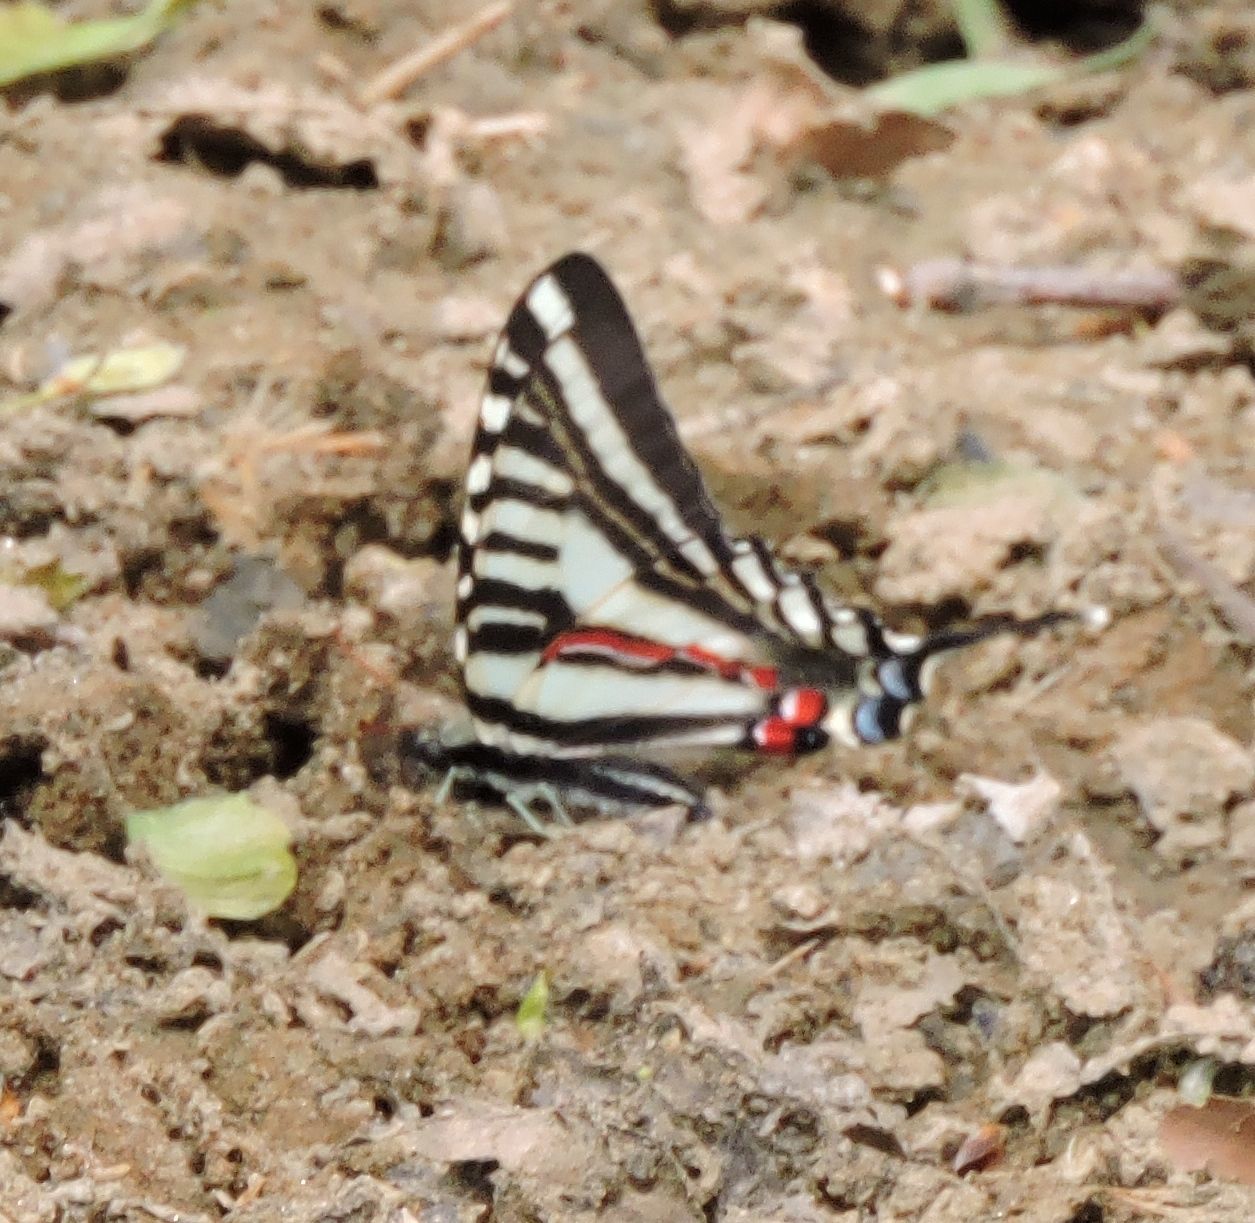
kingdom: Animalia
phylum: Arthropoda
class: Insecta
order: Lepidoptera
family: Papilionidae
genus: Protographium
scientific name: Protographium marcellus
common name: Zebra swallowtail
